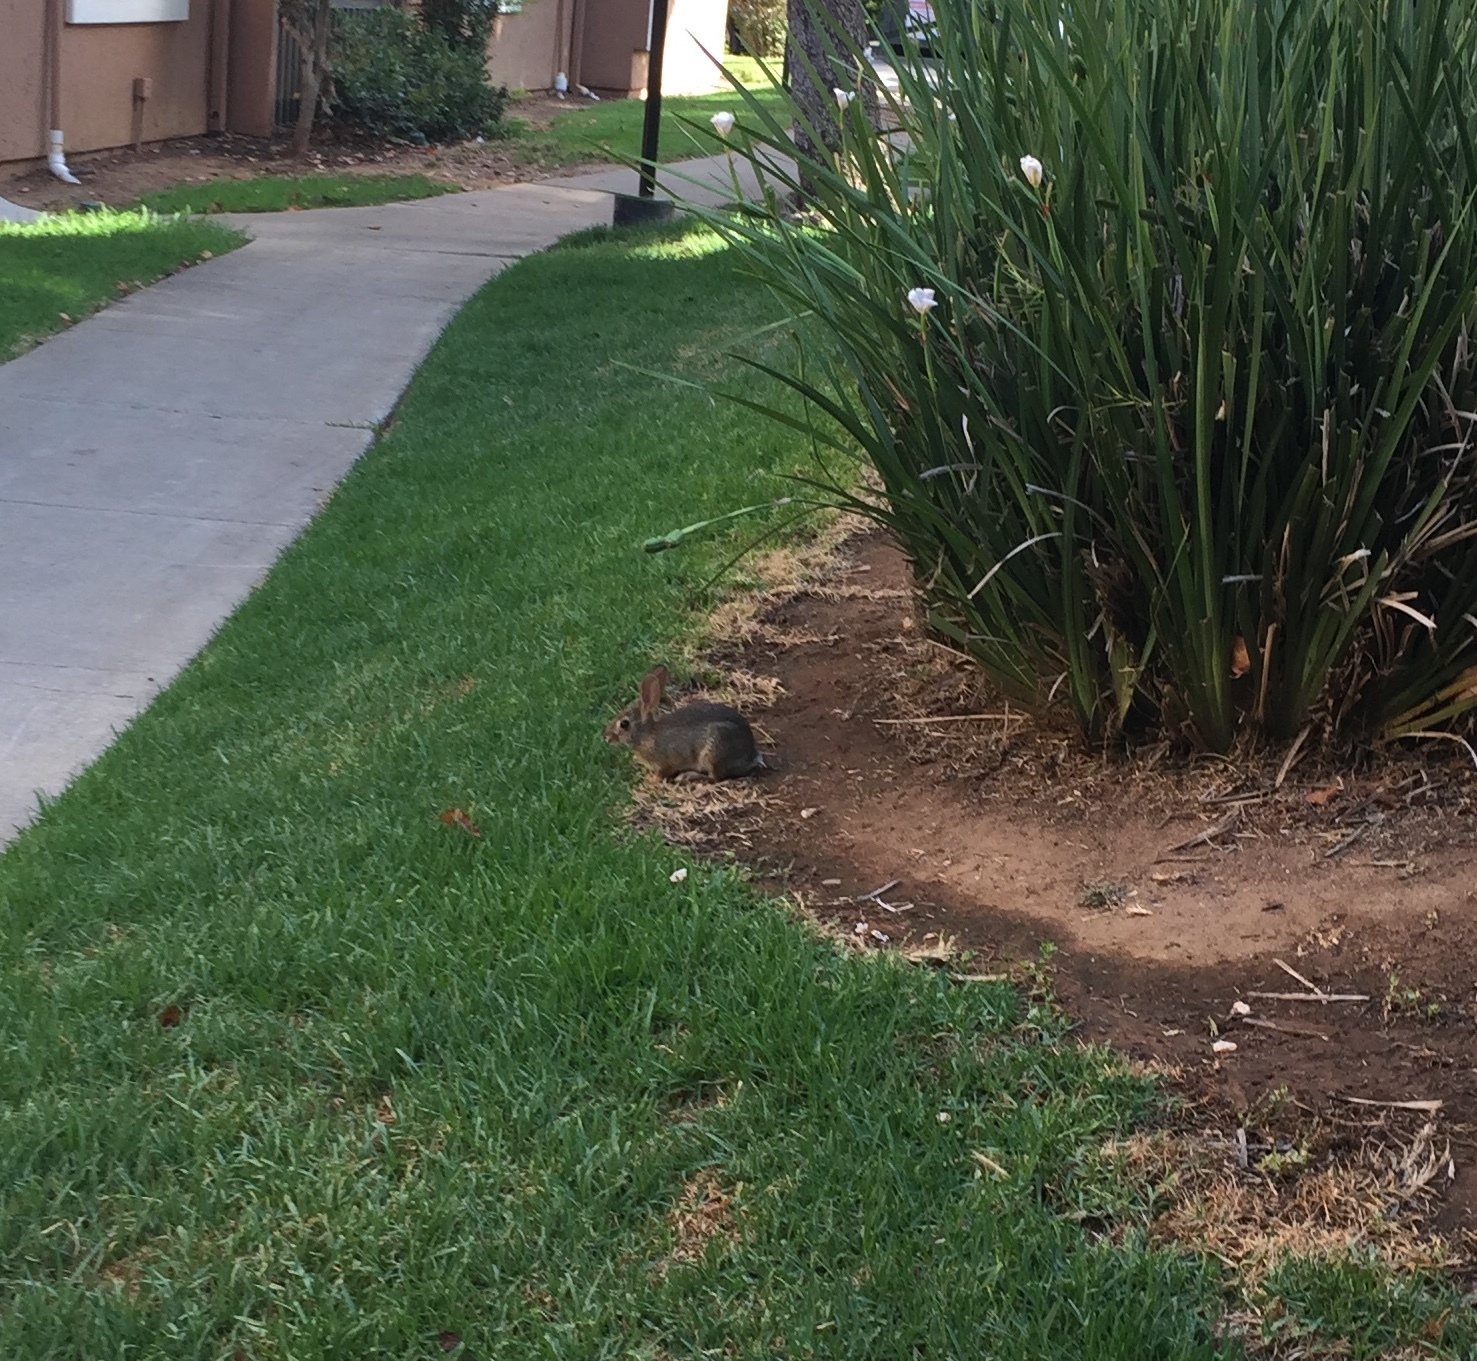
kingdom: Animalia
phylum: Chordata
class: Mammalia
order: Lagomorpha
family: Leporidae
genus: Sylvilagus
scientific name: Sylvilagus audubonii
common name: Desert cottontail
